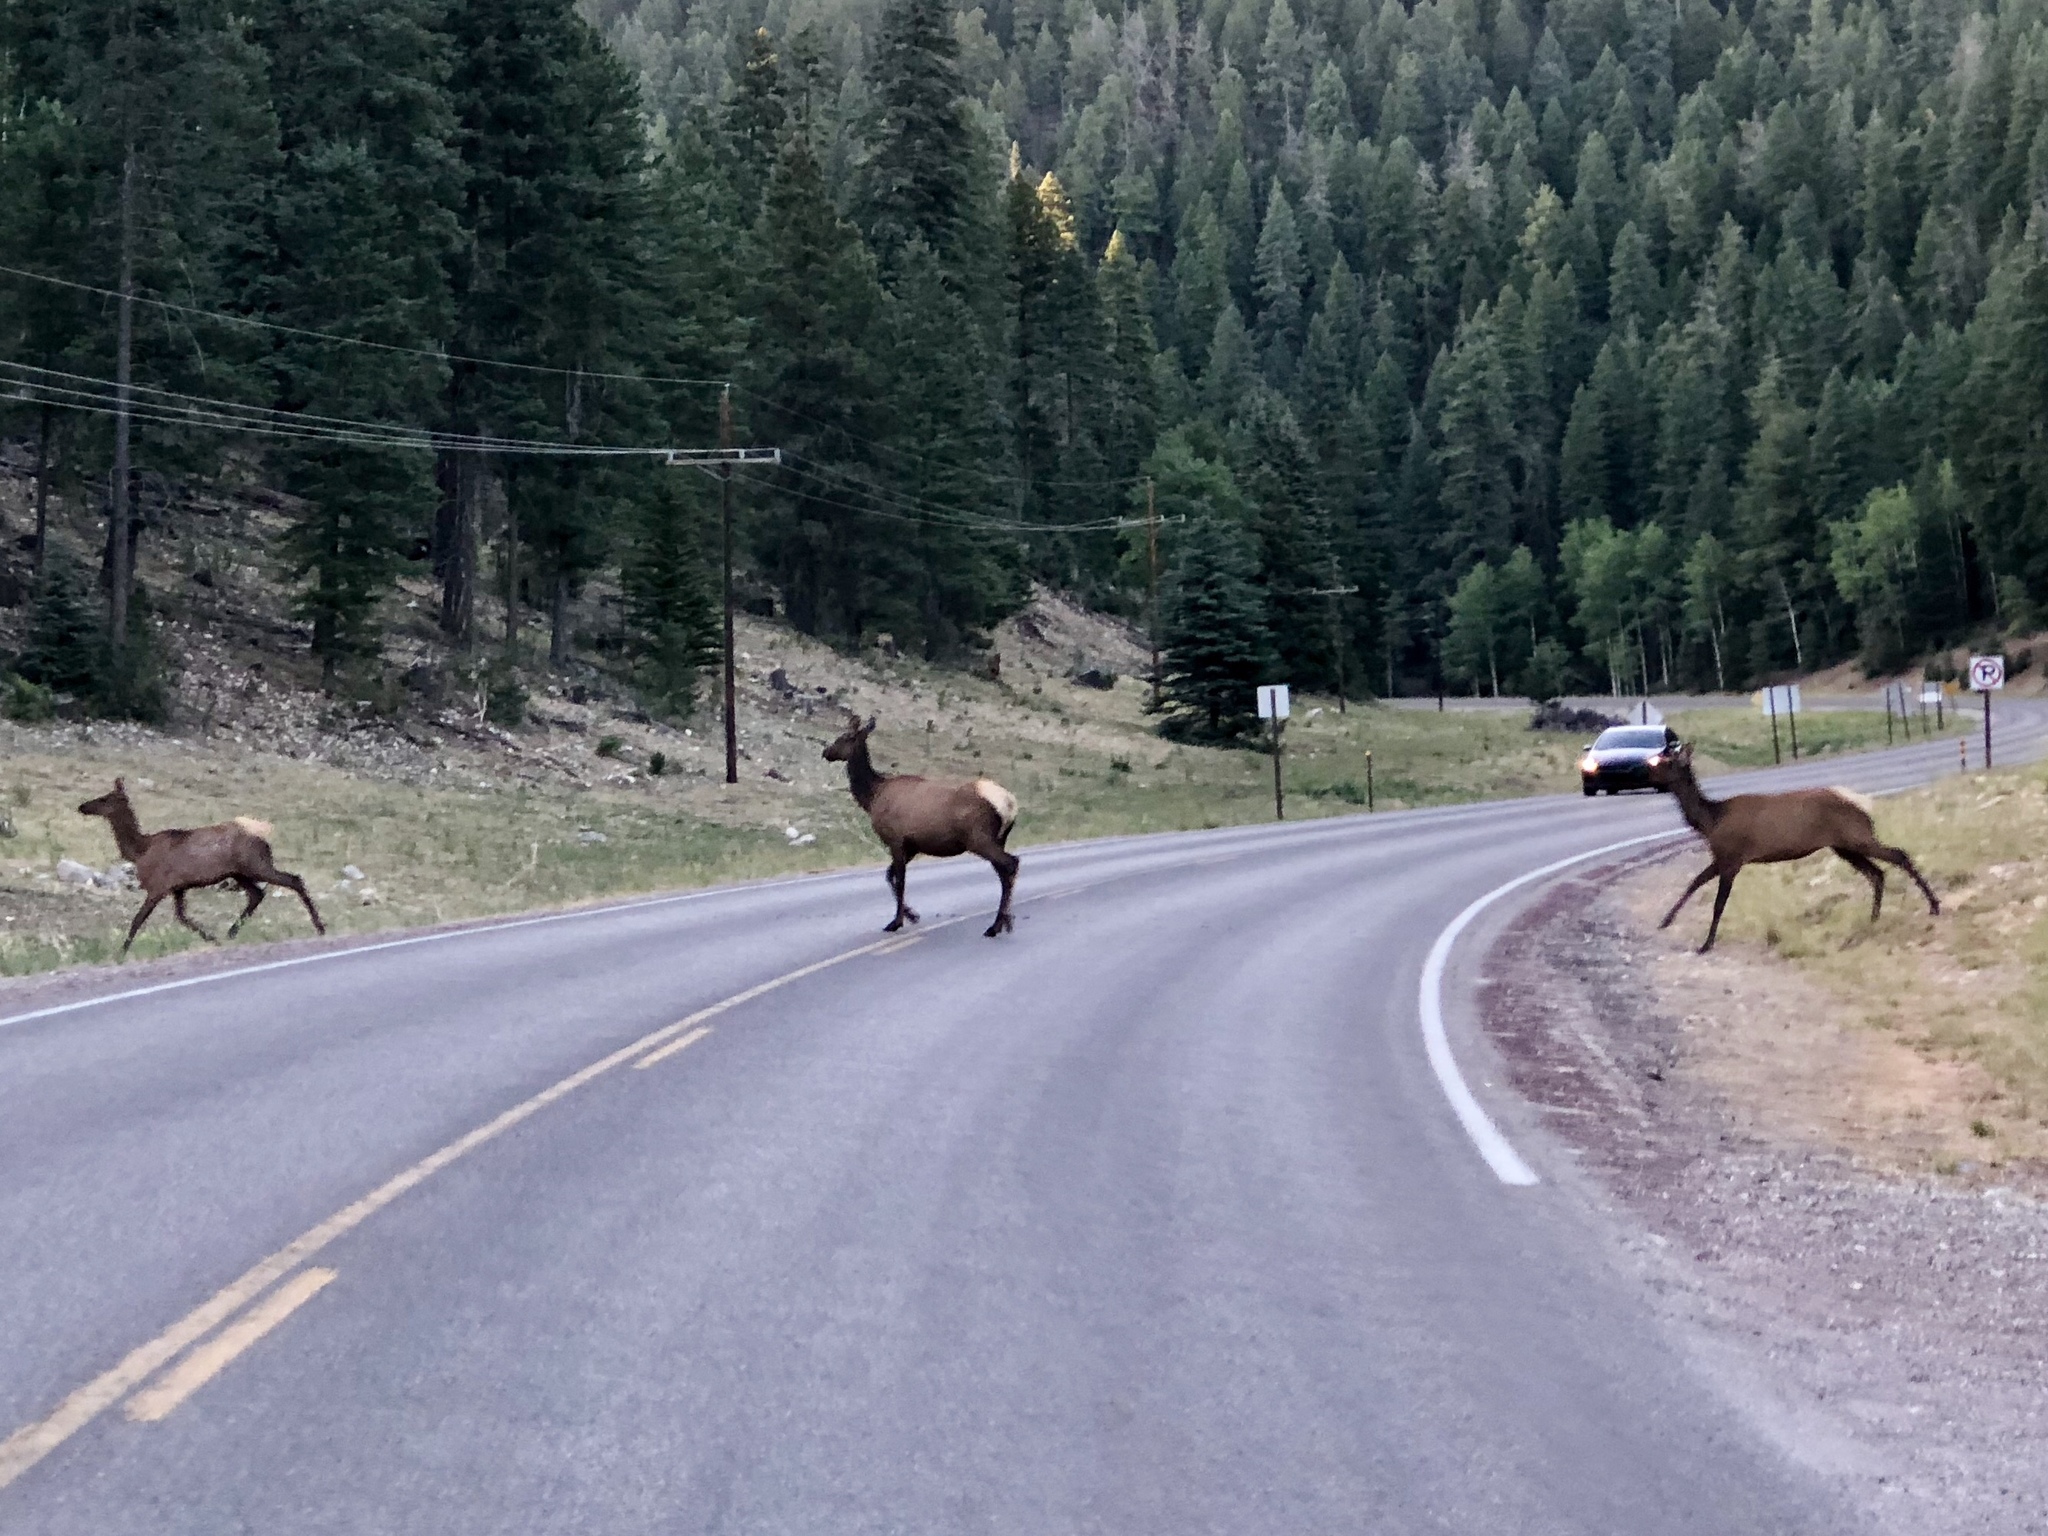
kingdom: Animalia
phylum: Chordata
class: Mammalia
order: Artiodactyla
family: Cervidae
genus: Cervus
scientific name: Cervus elaphus
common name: Red deer
